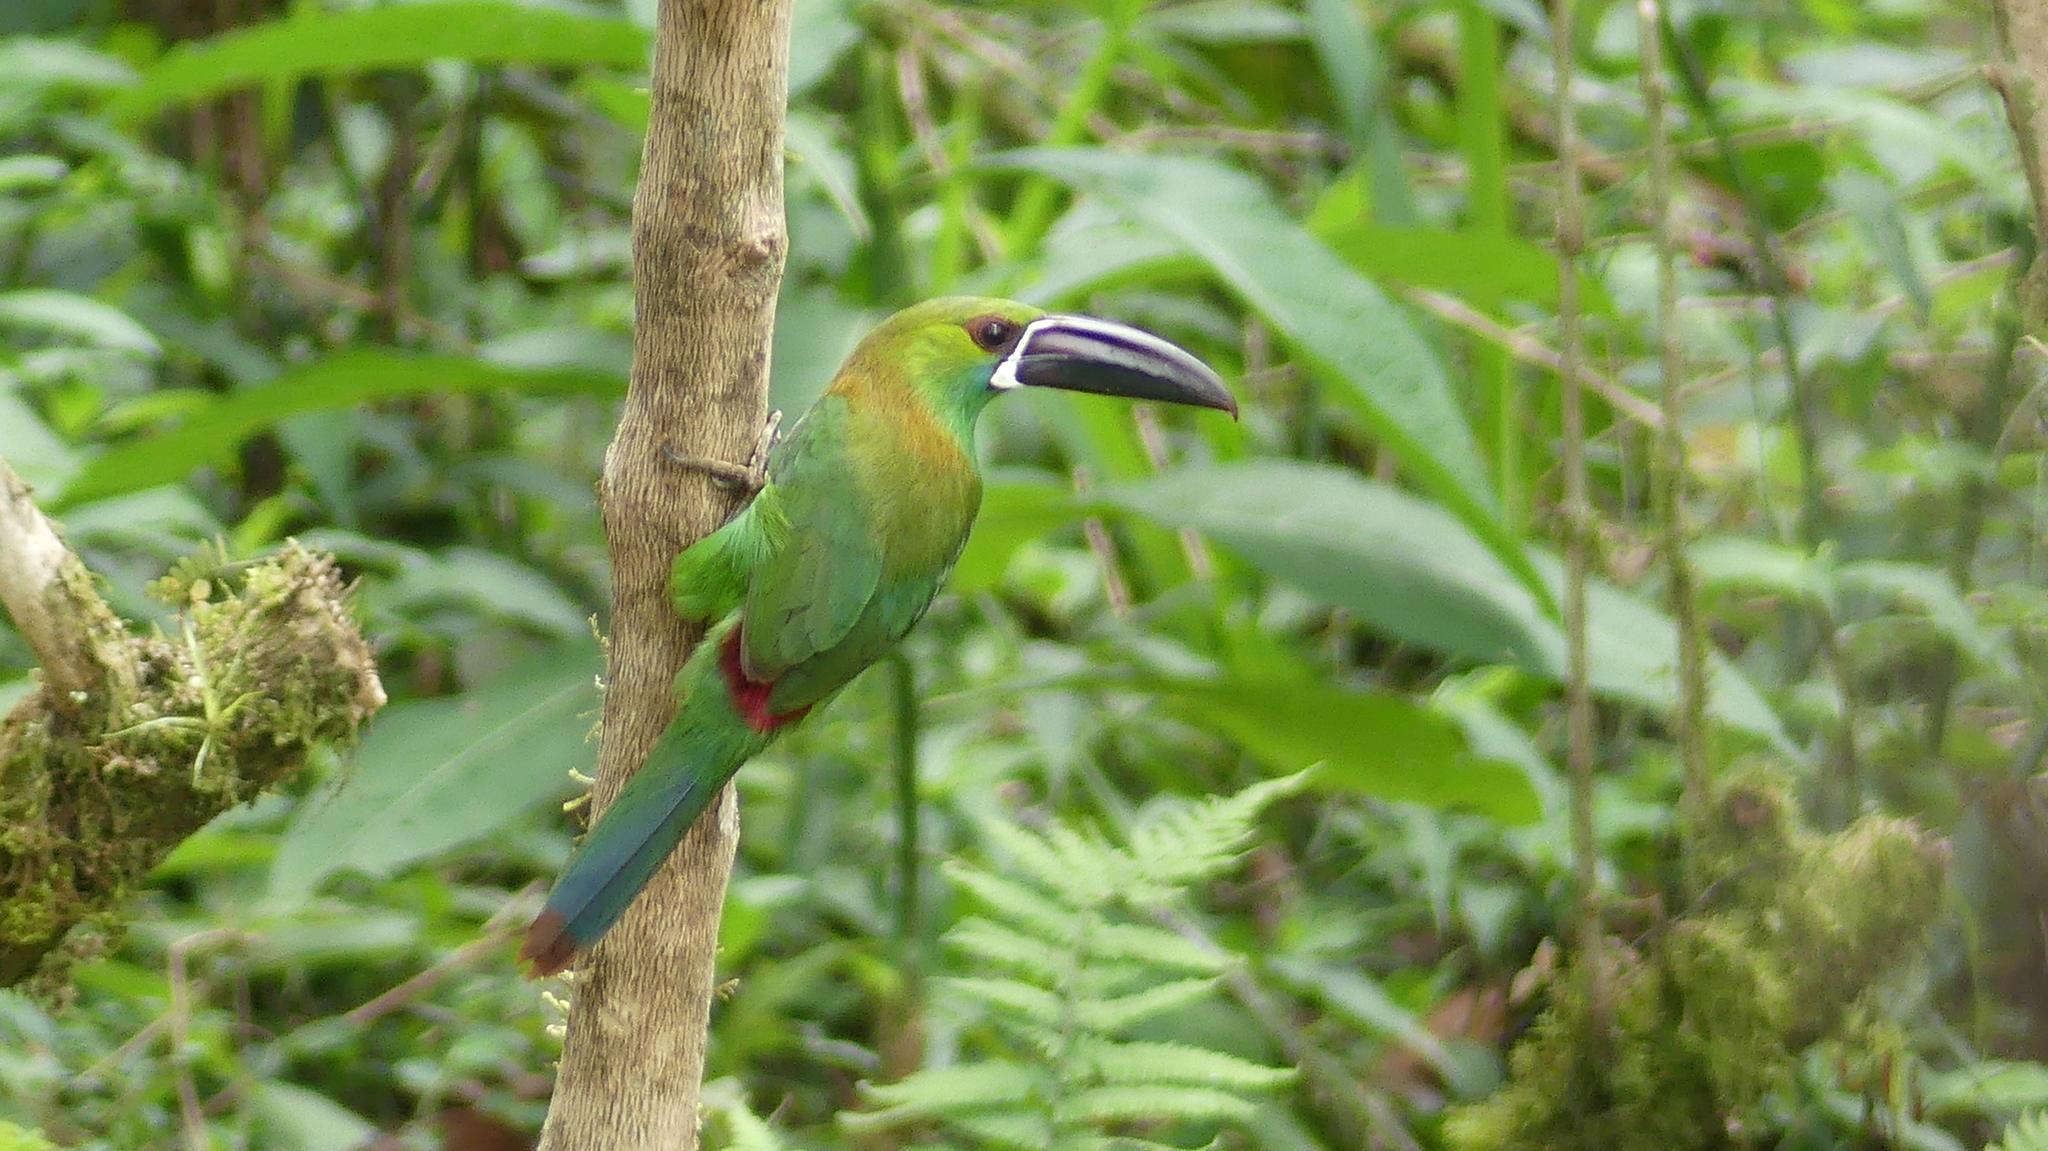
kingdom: Animalia
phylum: Chordata
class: Aves
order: Piciformes
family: Ramphastidae
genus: Aulacorhynchus
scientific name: Aulacorhynchus haematopygus
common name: Crimson-rumped toucanet
